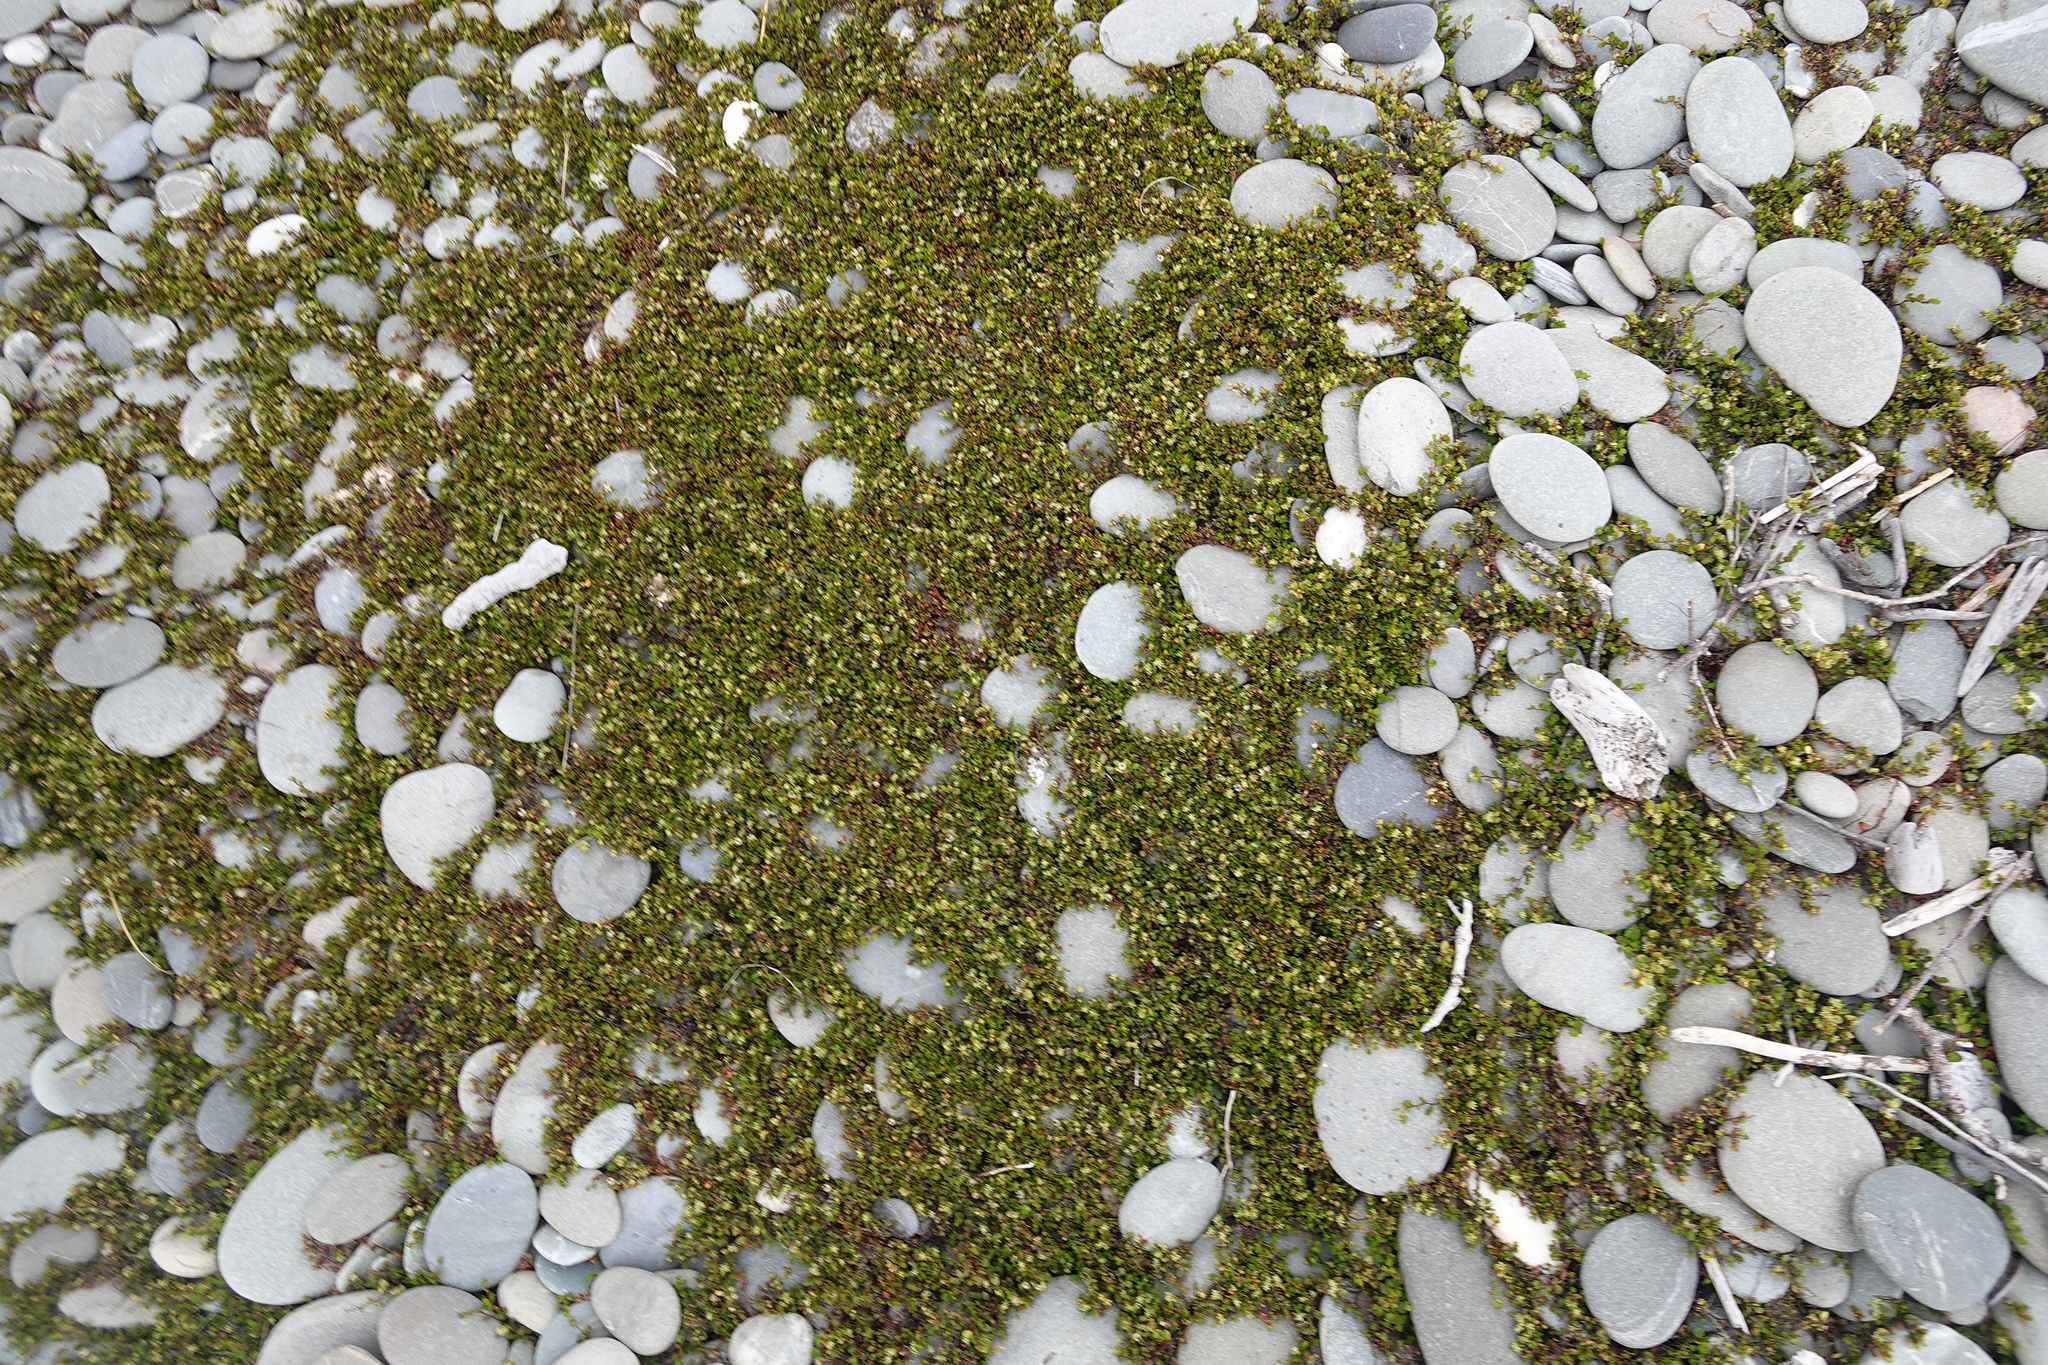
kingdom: Plantae
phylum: Tracheophyta
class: Magnoliopsida
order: Caryophyllales
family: Polygonaceae
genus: Muehlenbeckia
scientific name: Muehlenbeckia axillaris
